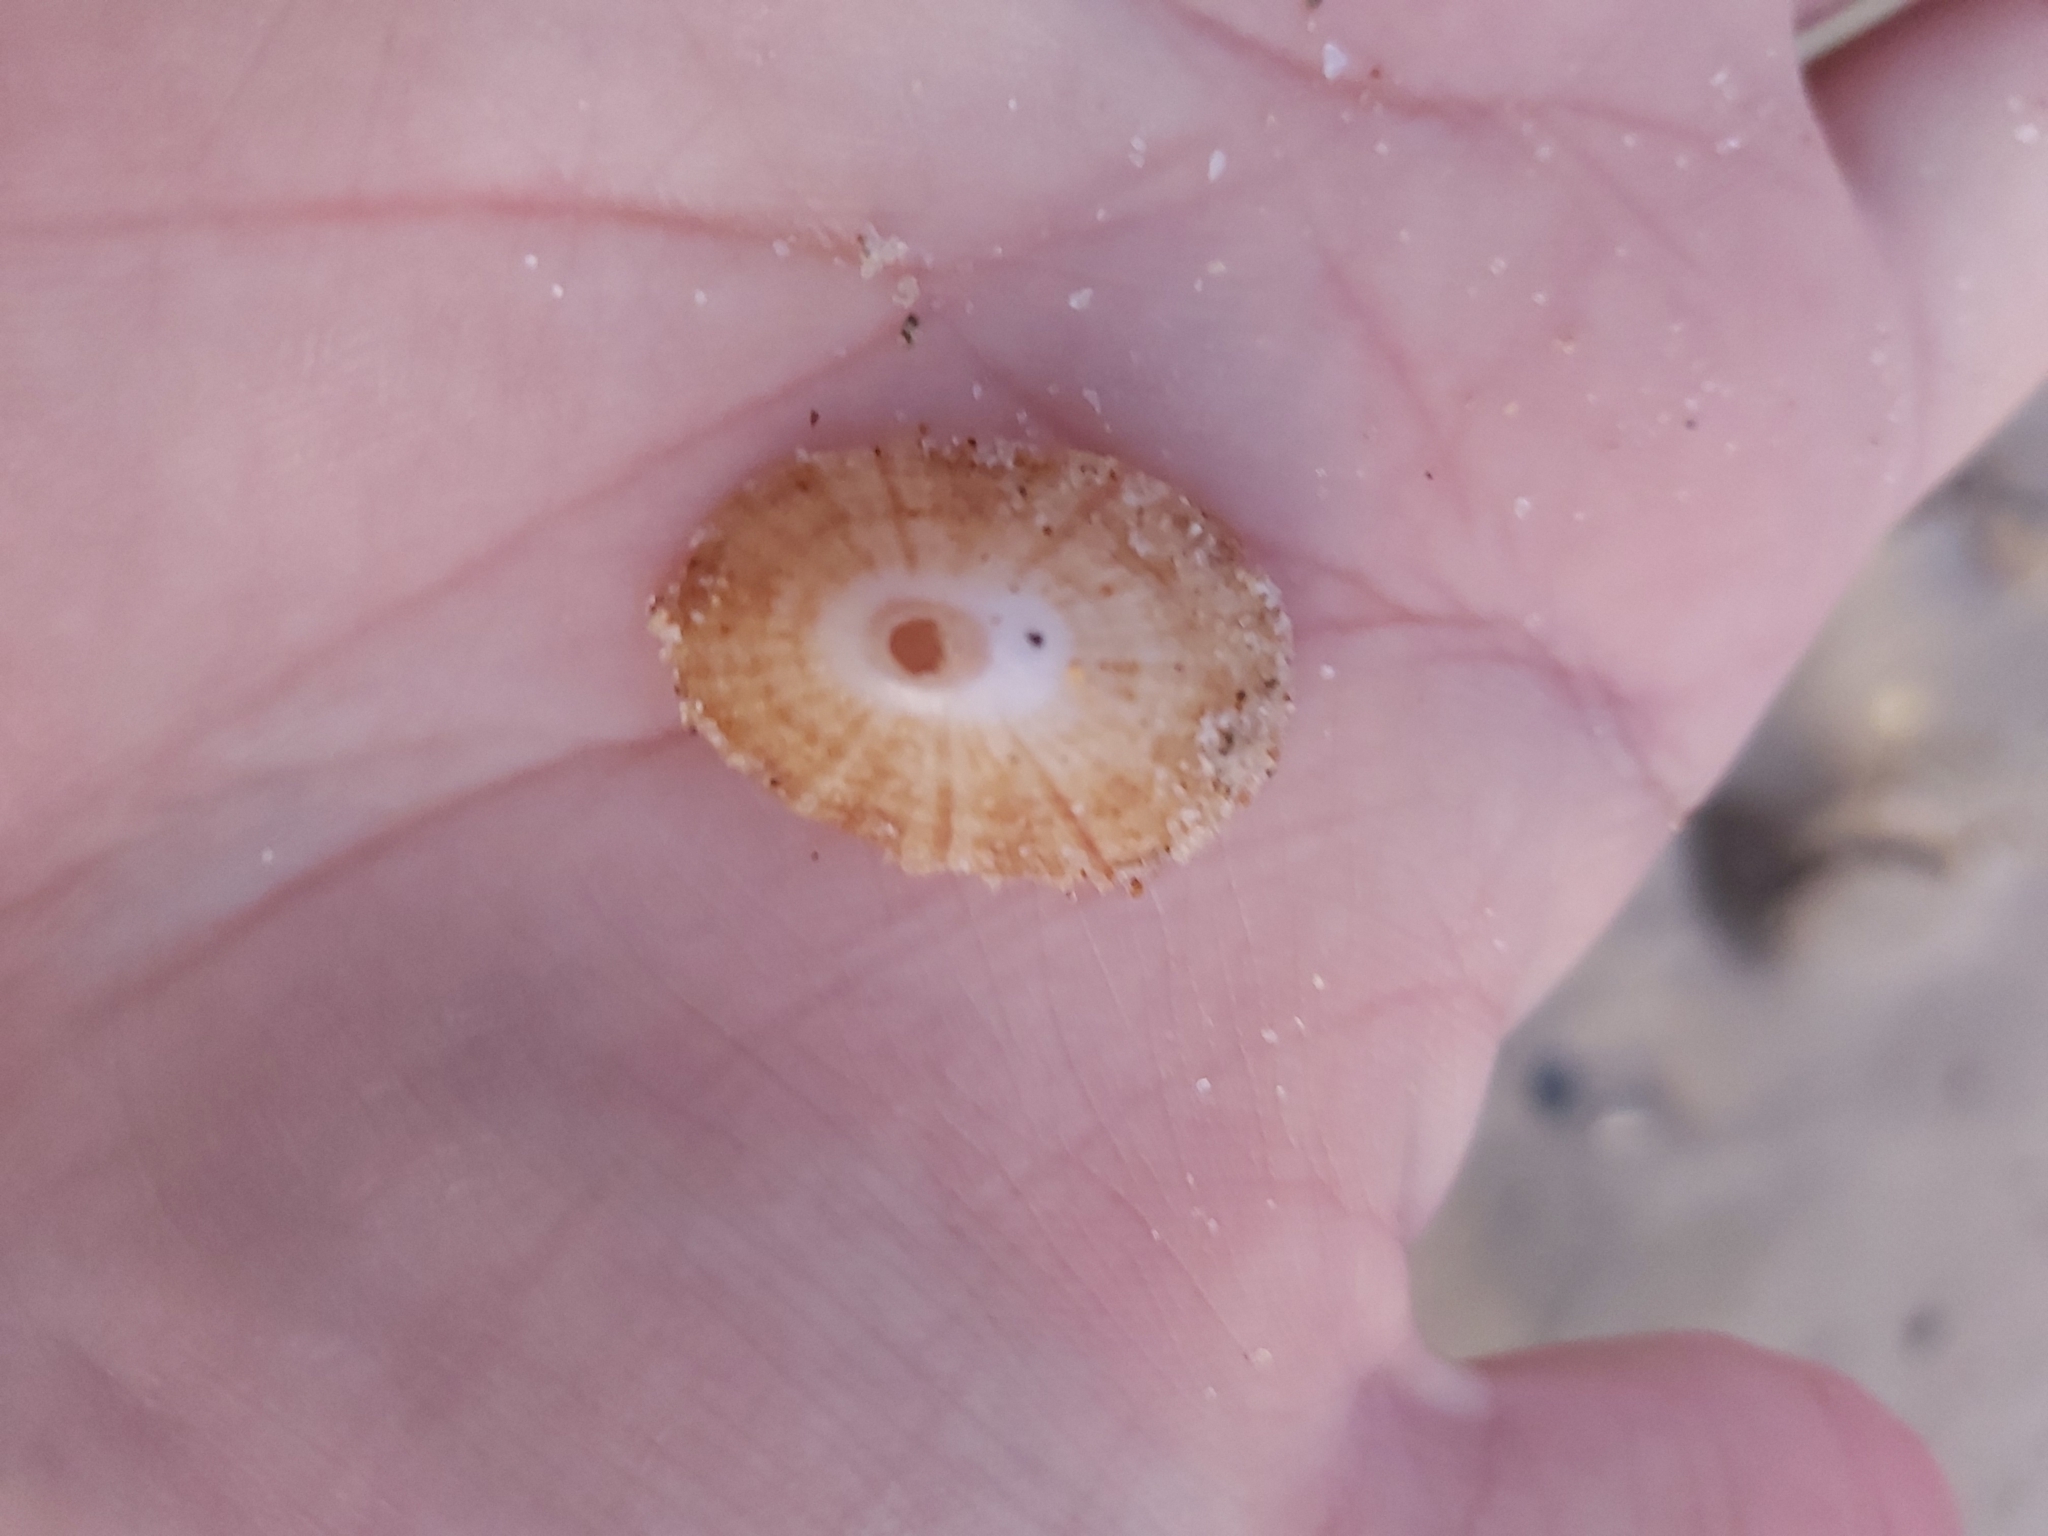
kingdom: Animalia
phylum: Mollusca
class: Gastropoda
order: Lepetellida
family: Fissurellidae
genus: Diodora
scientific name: Diodora lineata
